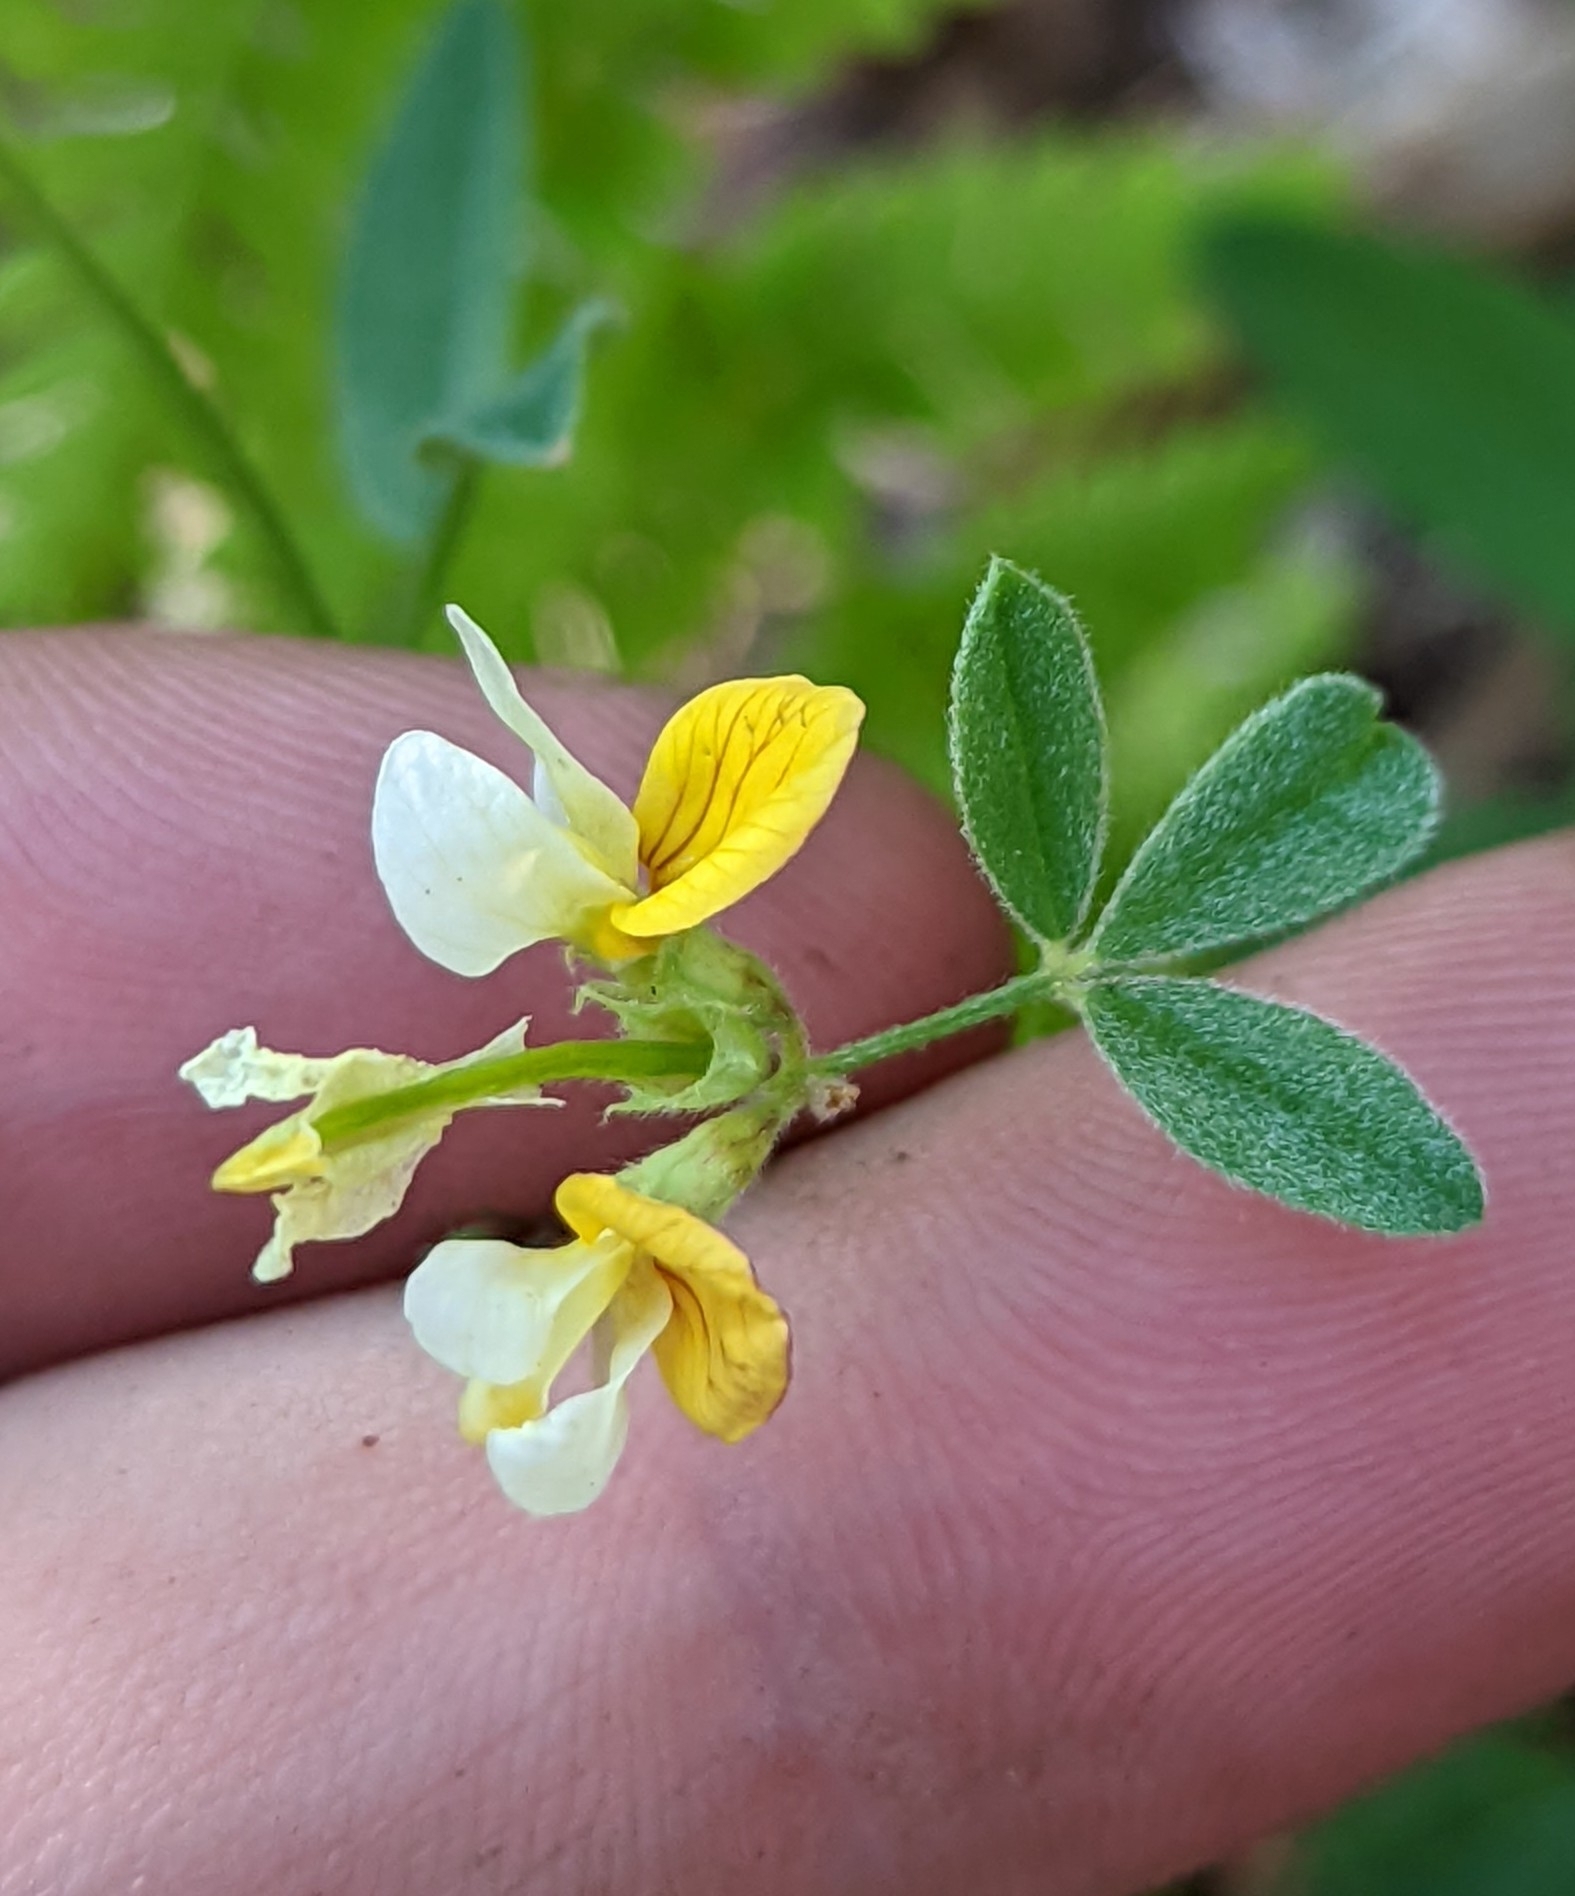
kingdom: Plantae
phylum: Tracheophyta
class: Magnoliopsida
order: Fabales
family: Fabaceae
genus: Hosackia
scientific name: Hosackia oblongifolia
